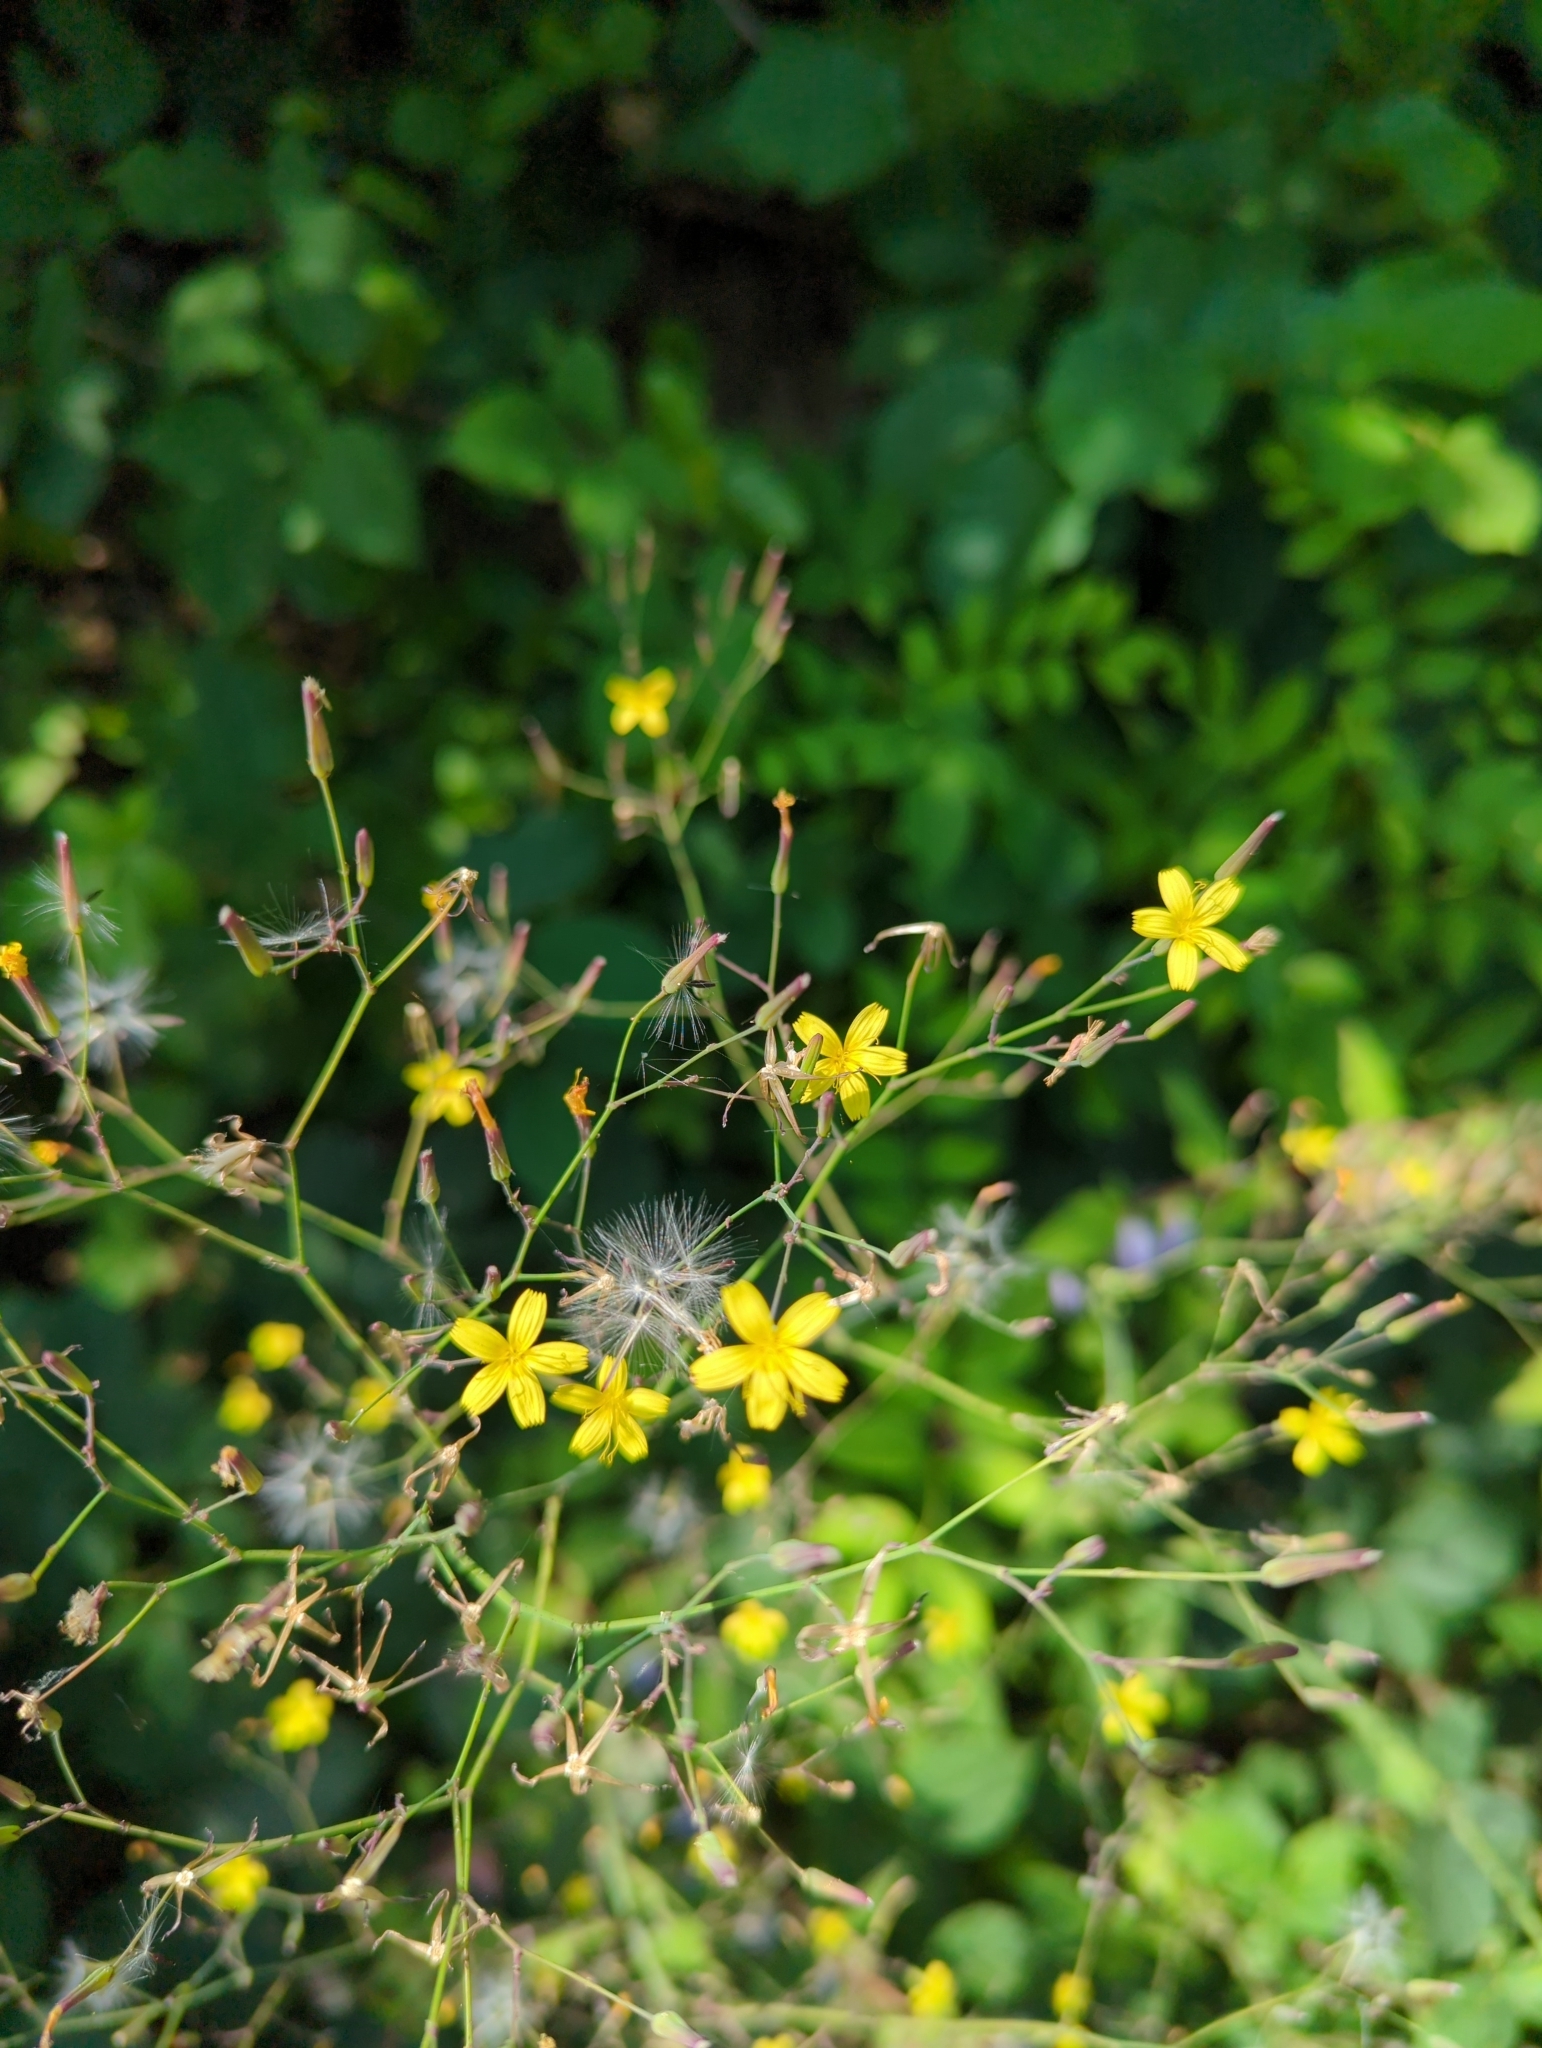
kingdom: Plantae
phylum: Tracheophyta
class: Magnoliopsida
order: Asterales
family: Asteraceae
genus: Mycelis
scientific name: Mycelis muralis
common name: Wall lettuce
